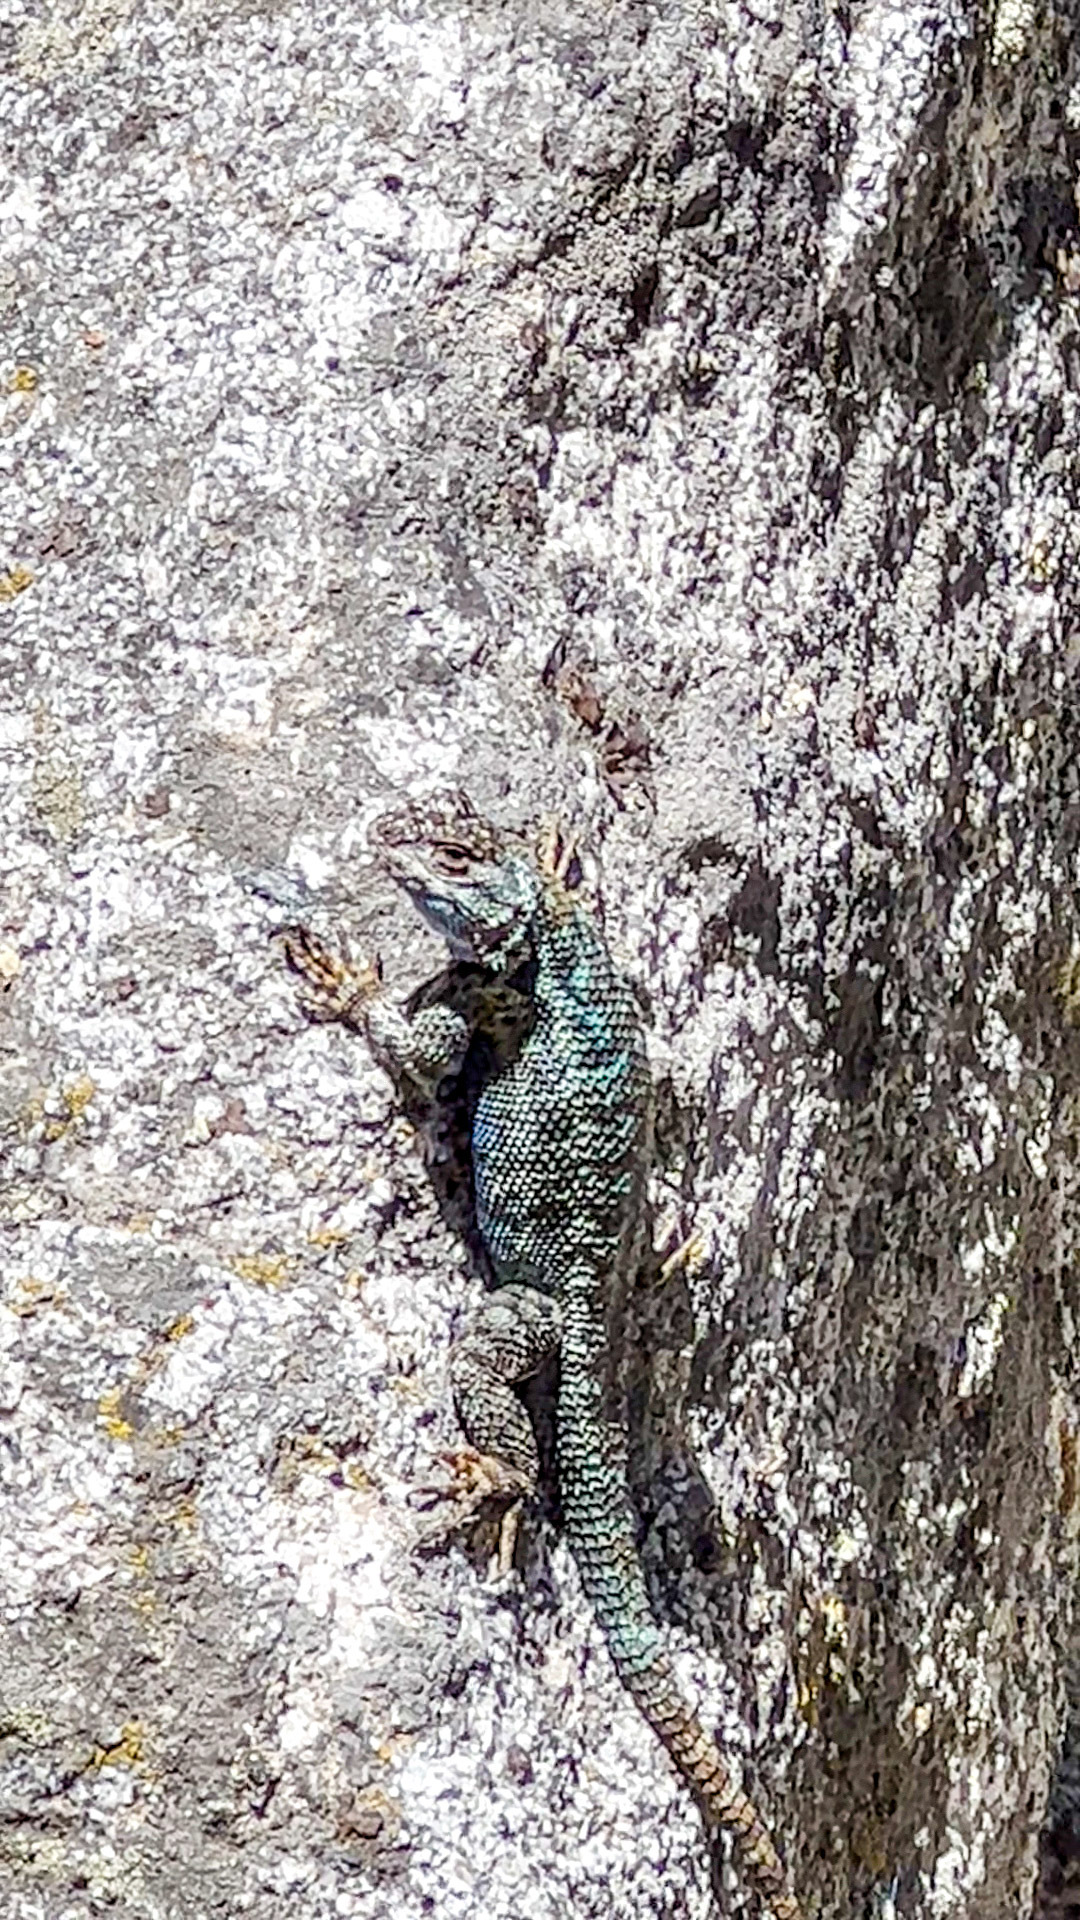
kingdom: Animalia
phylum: Chordata
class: Squamata
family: Phrynosomatidae
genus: Sceloporus
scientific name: Sceloporus occidentalis
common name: Western fence lizard
